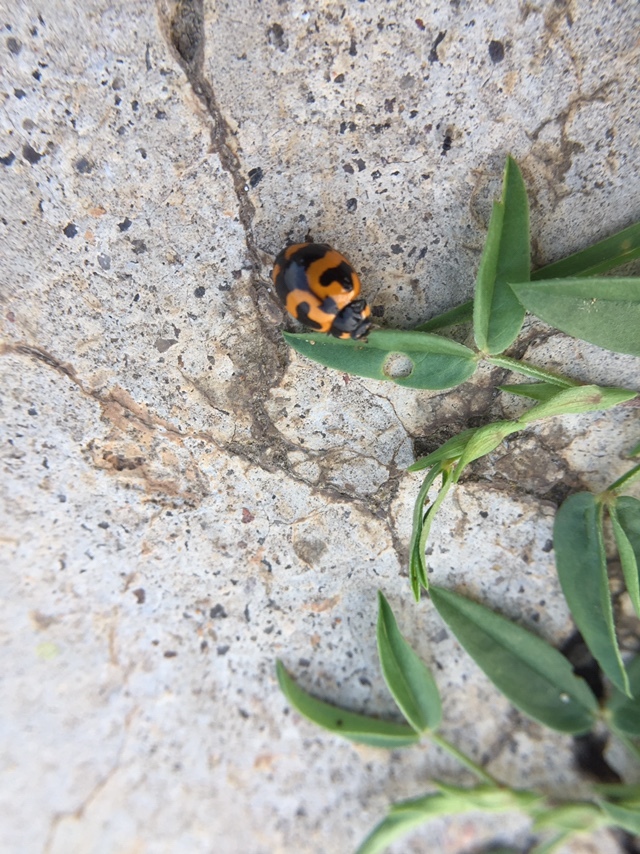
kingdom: Animalia
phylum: Arthropoda
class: Insecta
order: Coleoptera
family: Coccinellidae
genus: Coccinella
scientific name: Coccinella transversalis
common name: Transverse lady beetle
